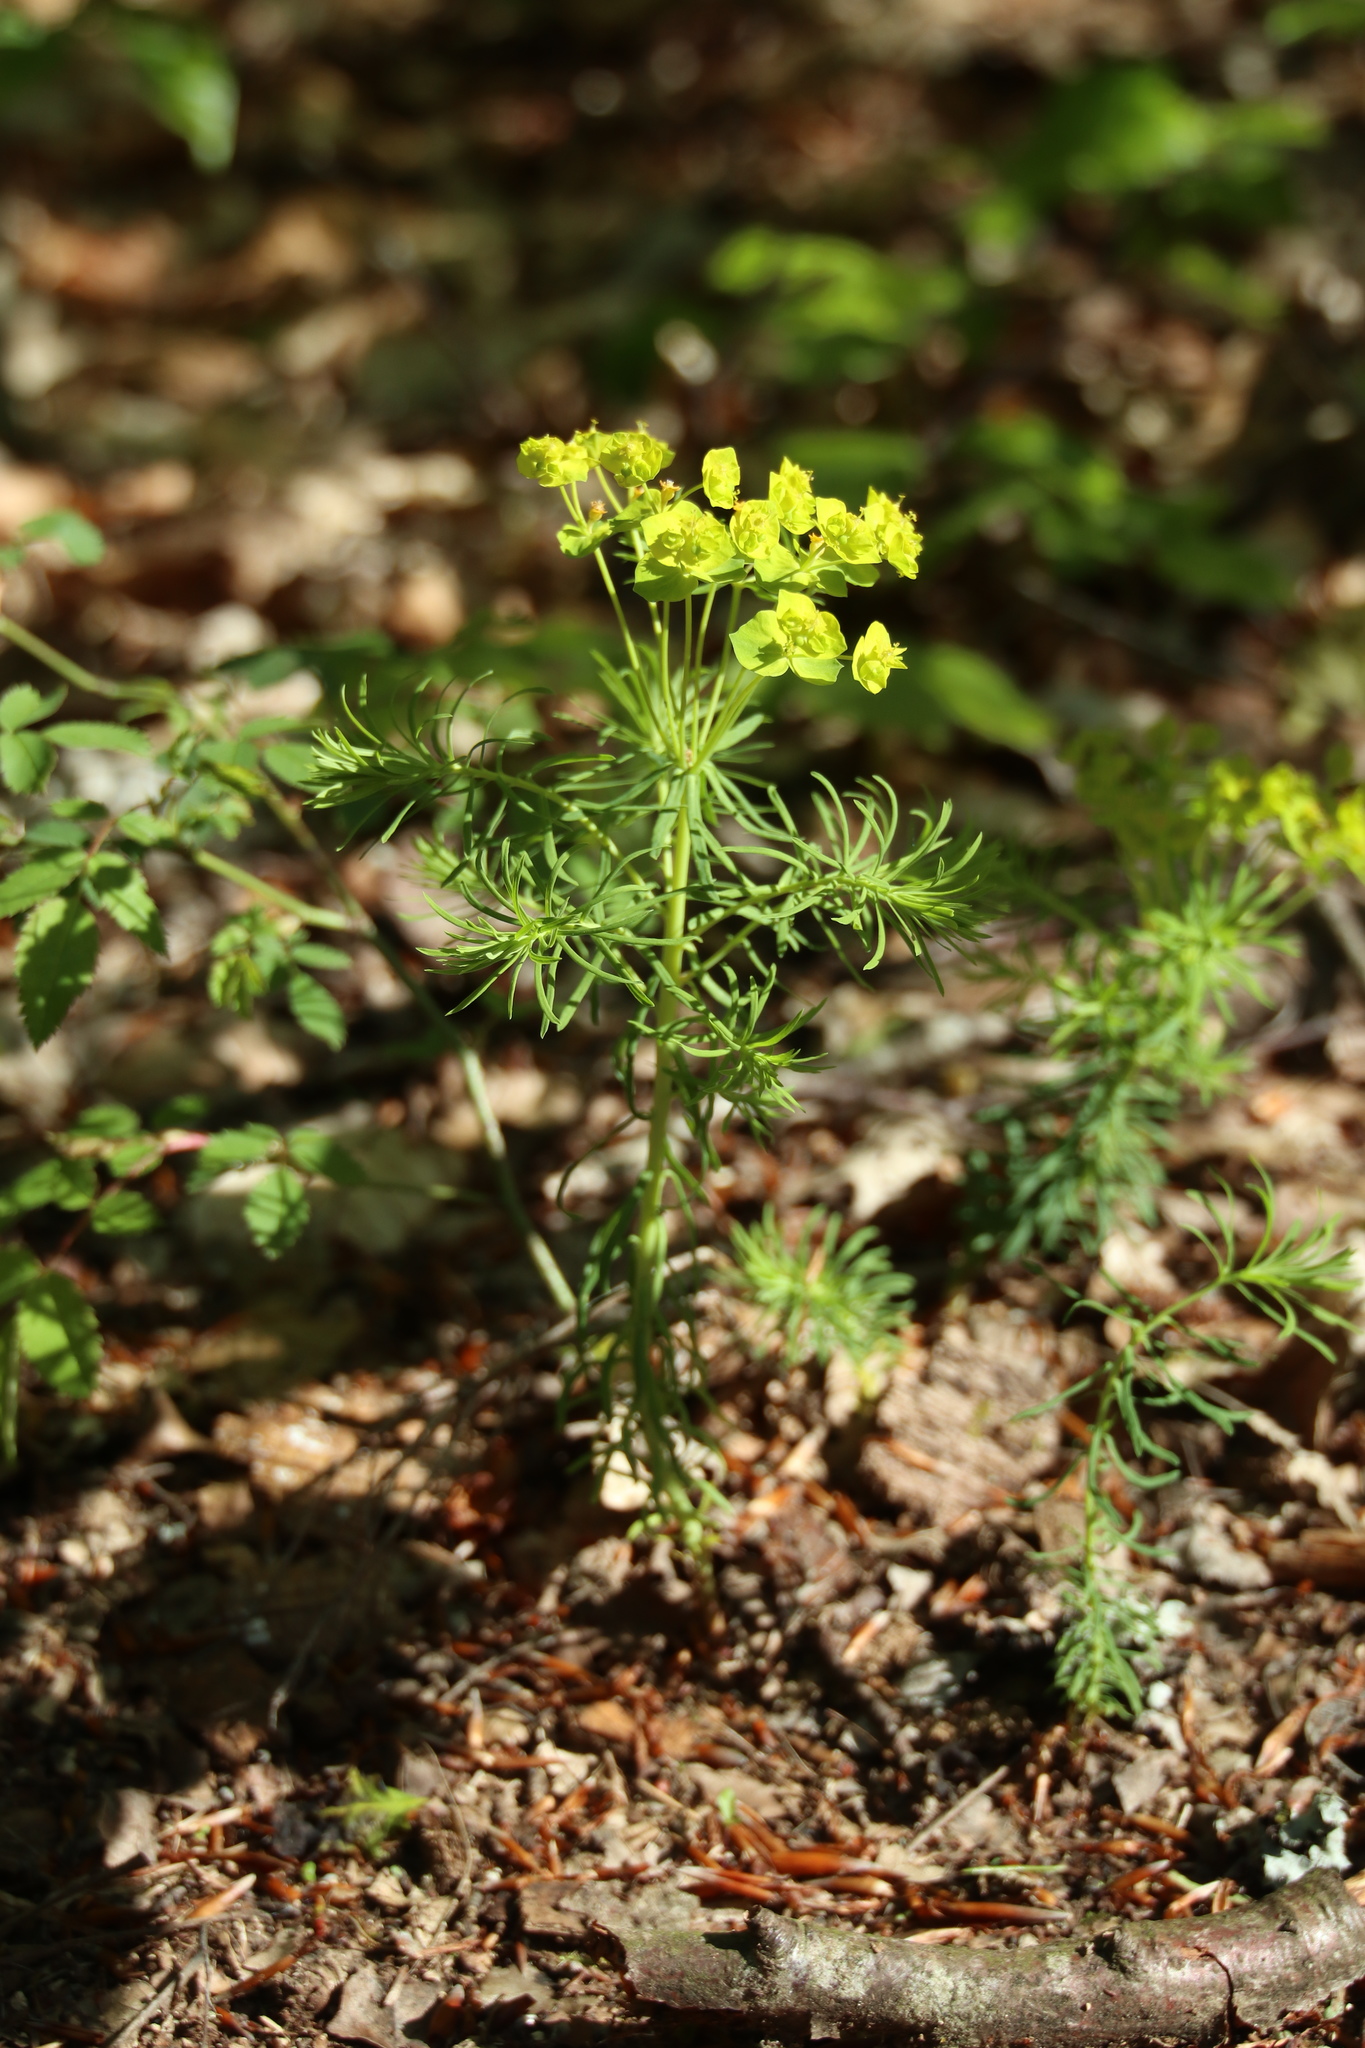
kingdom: Plantae
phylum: Tracheophyta
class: Magnoliopsida
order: Malpighiales
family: Euphorbiaceae
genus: Euphorbia
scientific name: Euphorbia cyparissias
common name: Cypress spurge
